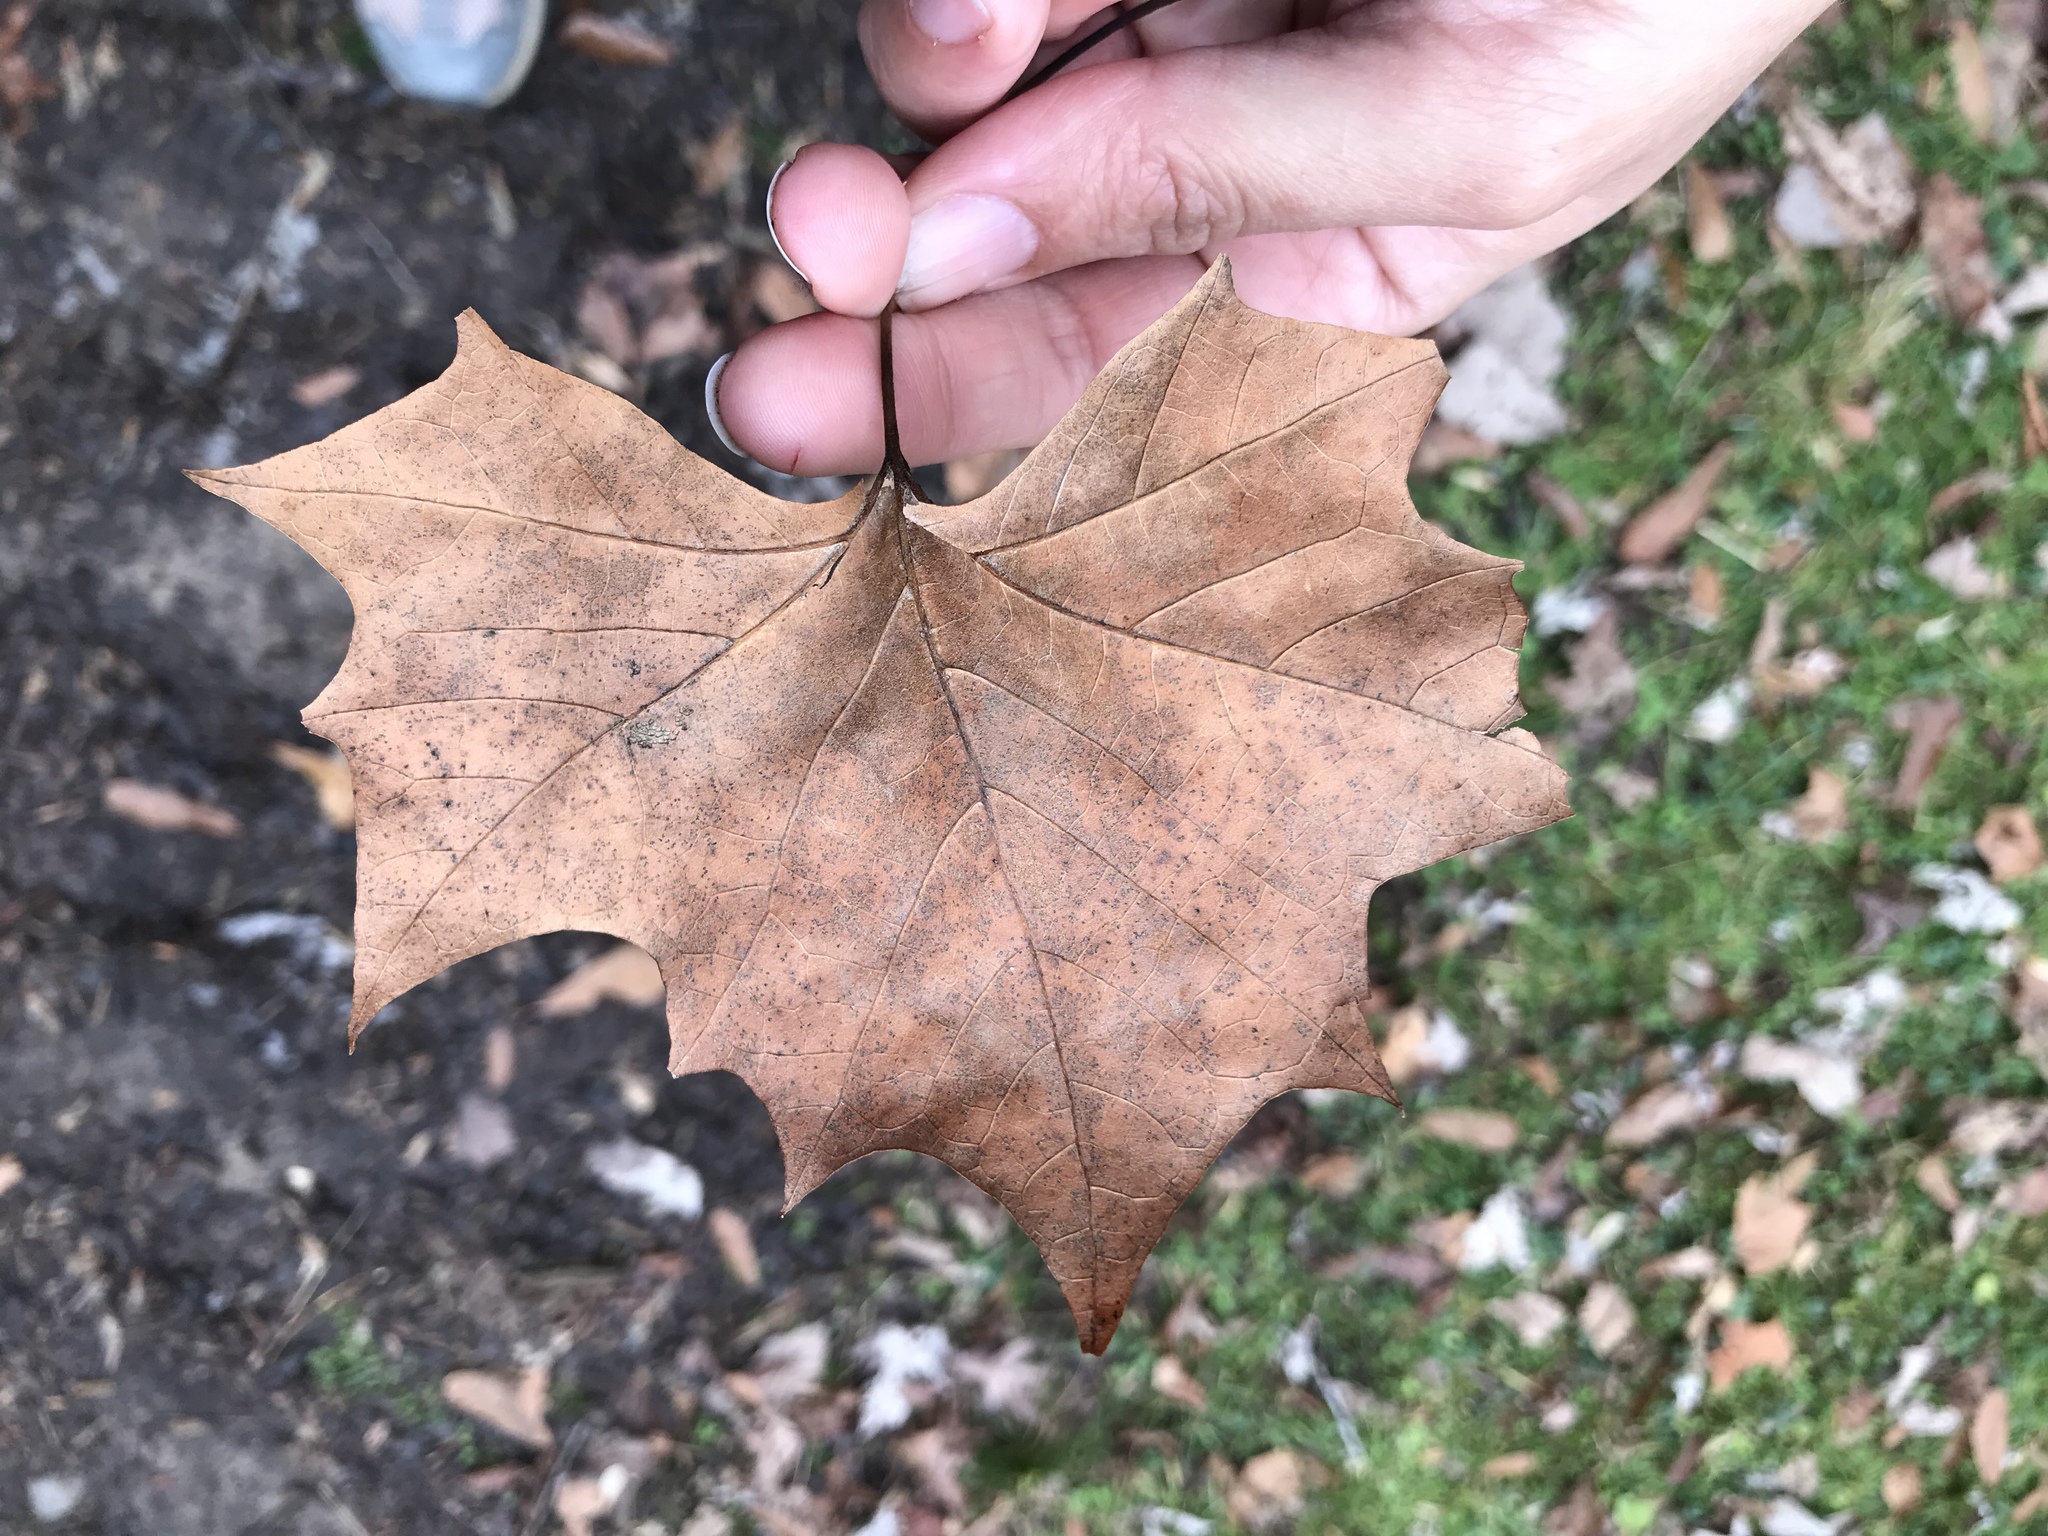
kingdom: Plantae
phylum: Tracheophyta
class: Magnoliopsida
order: Proteales
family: Platanaceae
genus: Platanus
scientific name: Platanus occidentalis
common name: American sycamore
